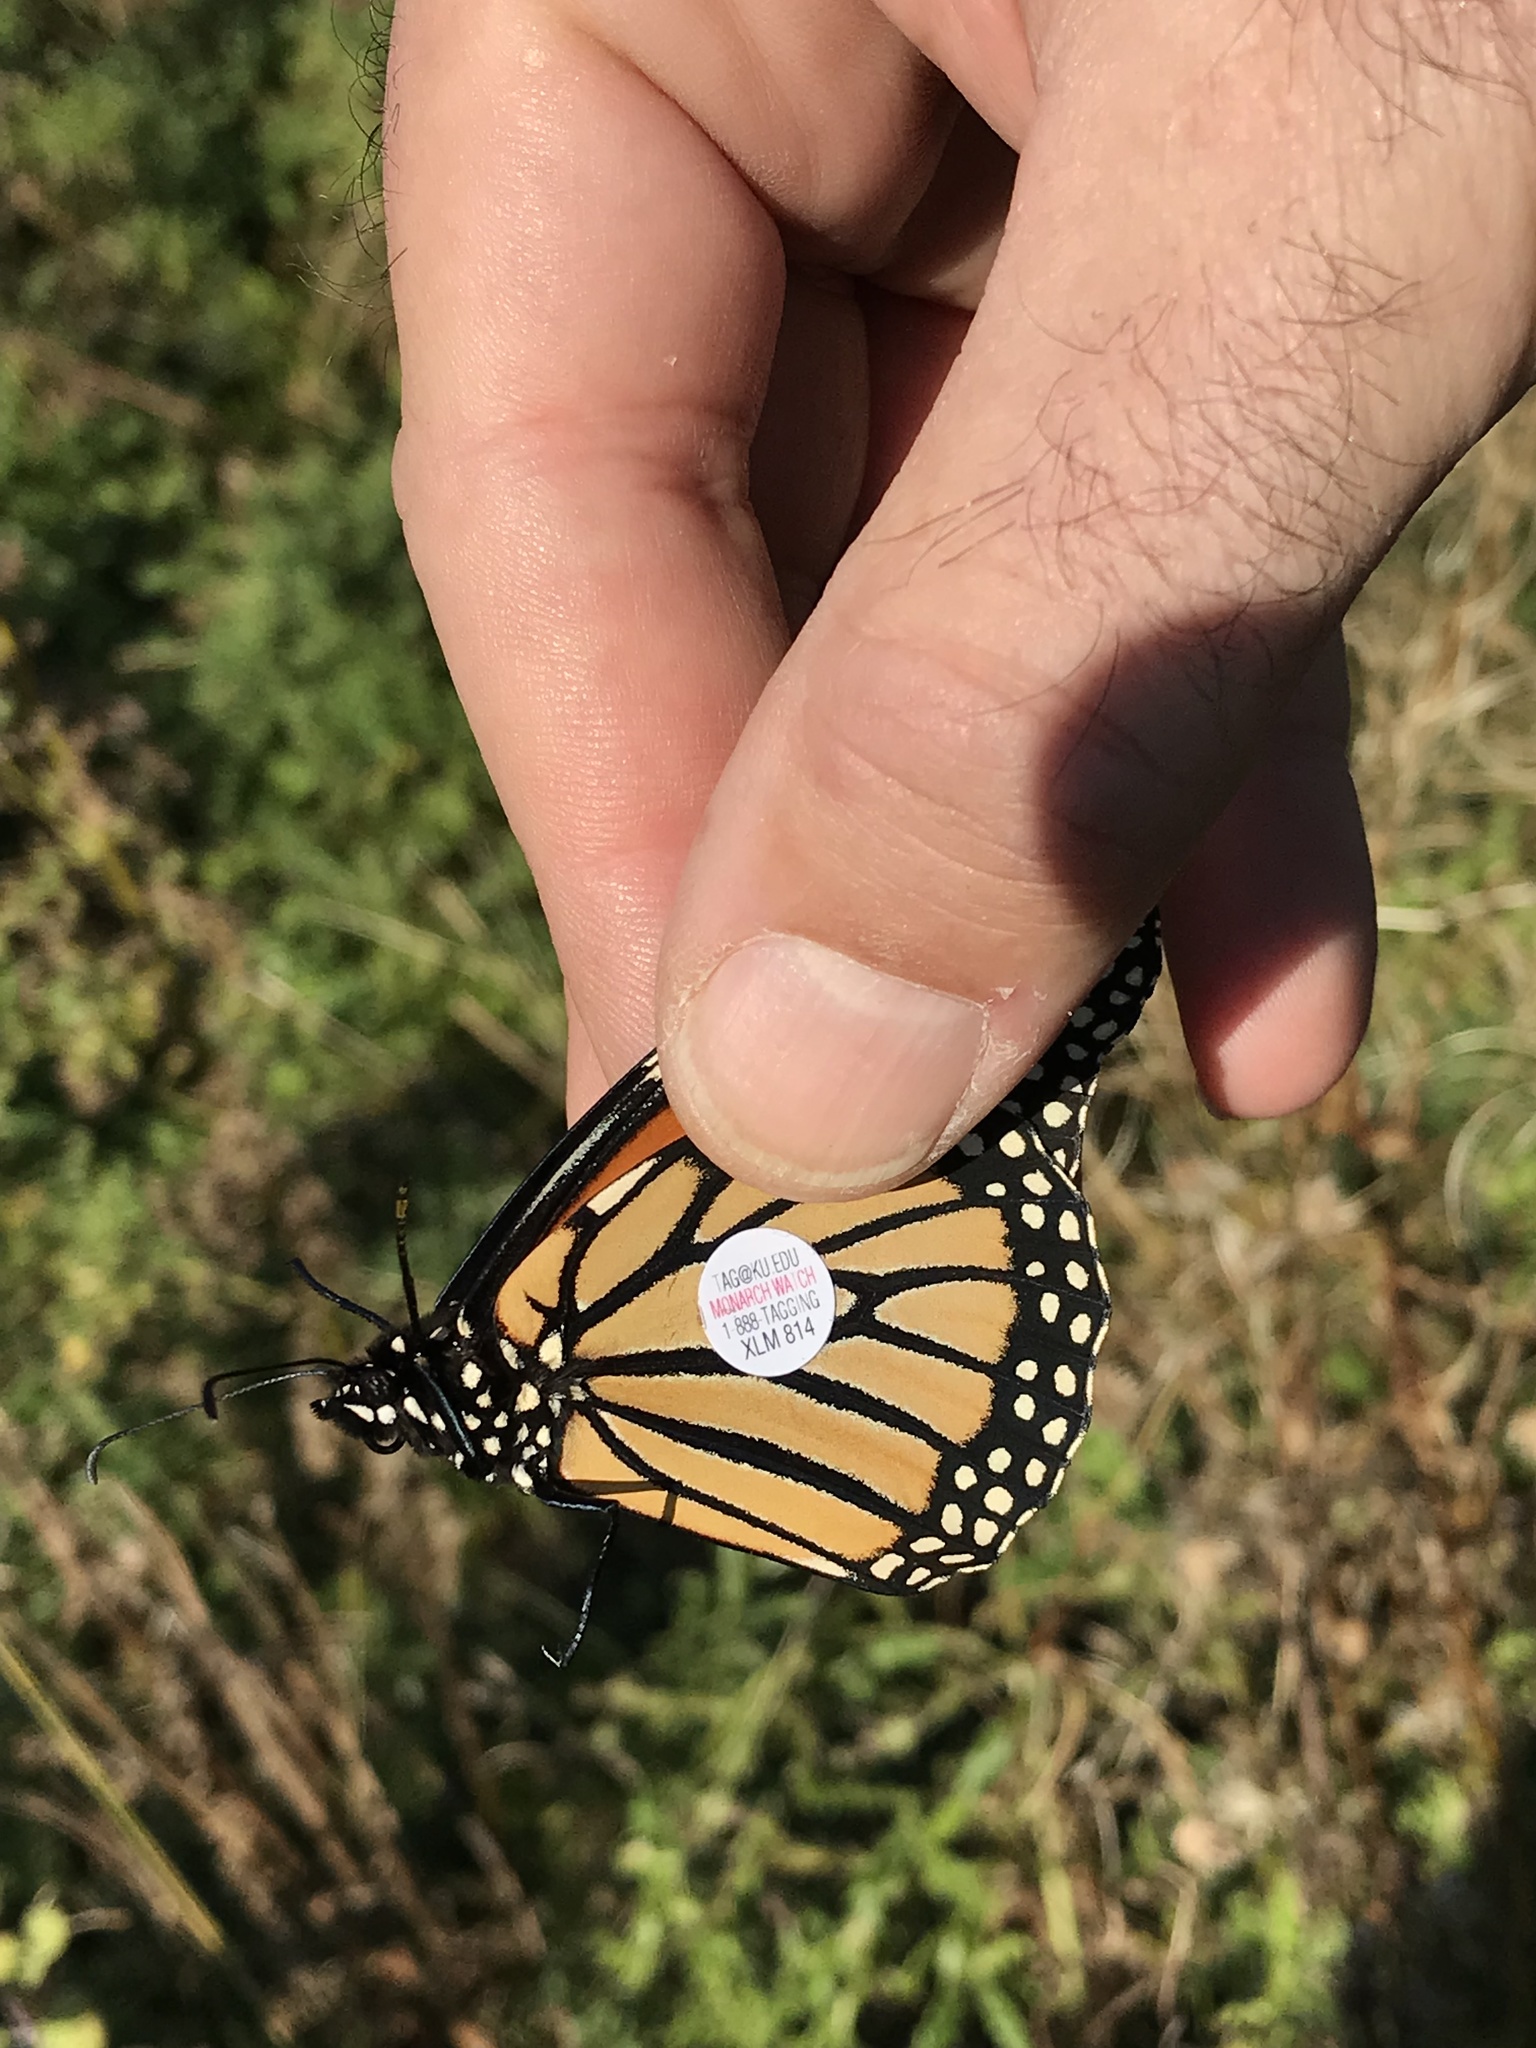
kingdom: Animalia
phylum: Arthropoda
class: Insecta
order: Lepidoptera
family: Nymphalidae
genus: Danaus
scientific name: Danaus plexippus
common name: Monarch
